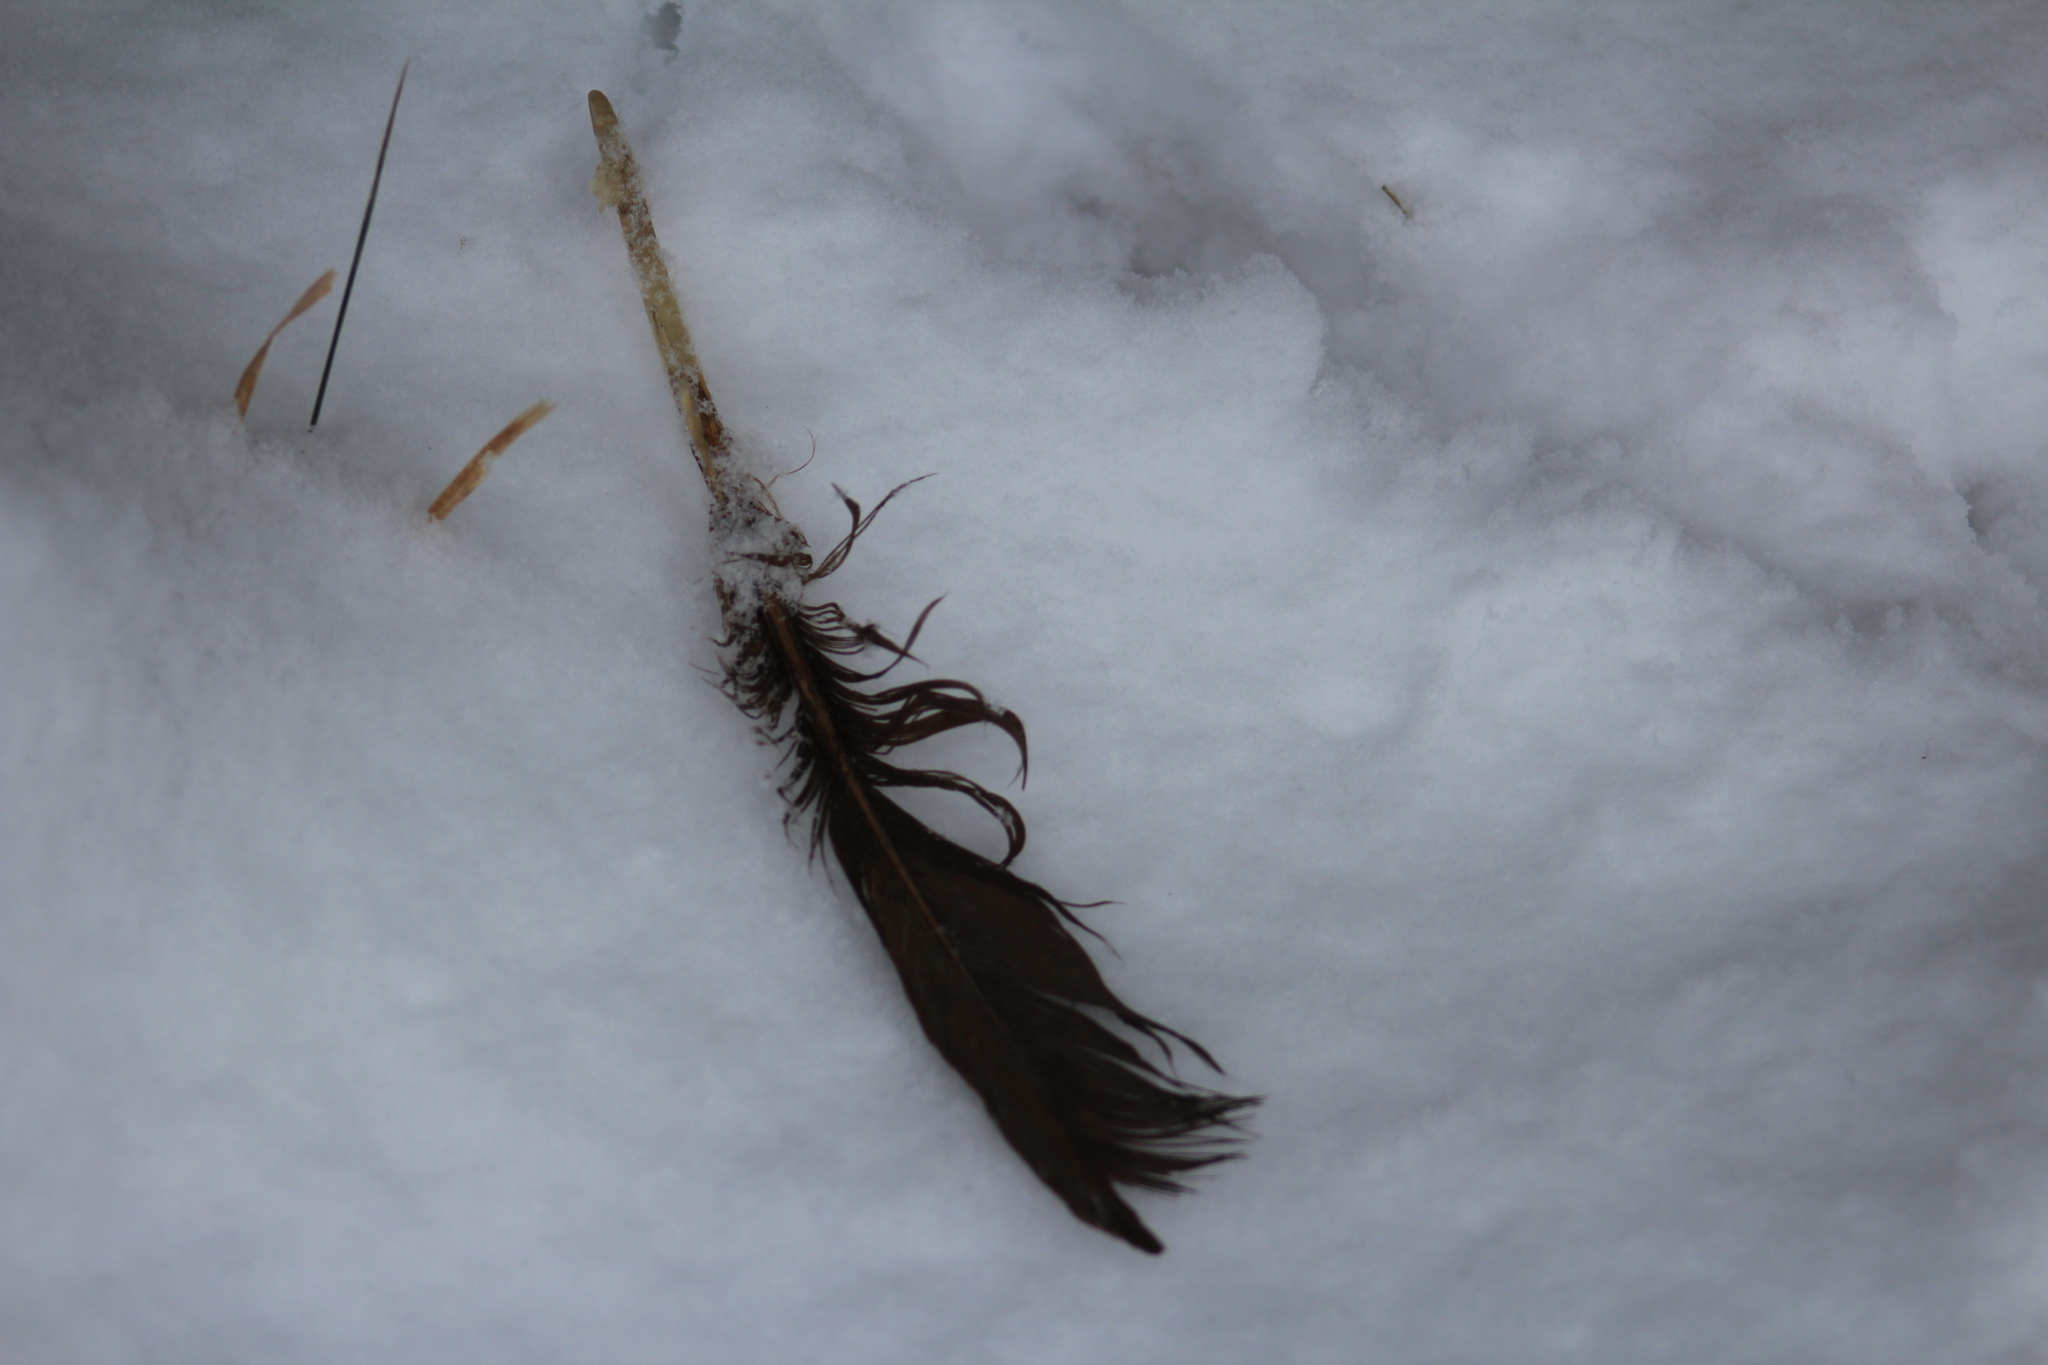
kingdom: Animalia
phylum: Chordata
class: Aves
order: Anseriformes
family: Anatidae
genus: Branta
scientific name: Branta canadensis
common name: Canada goose
